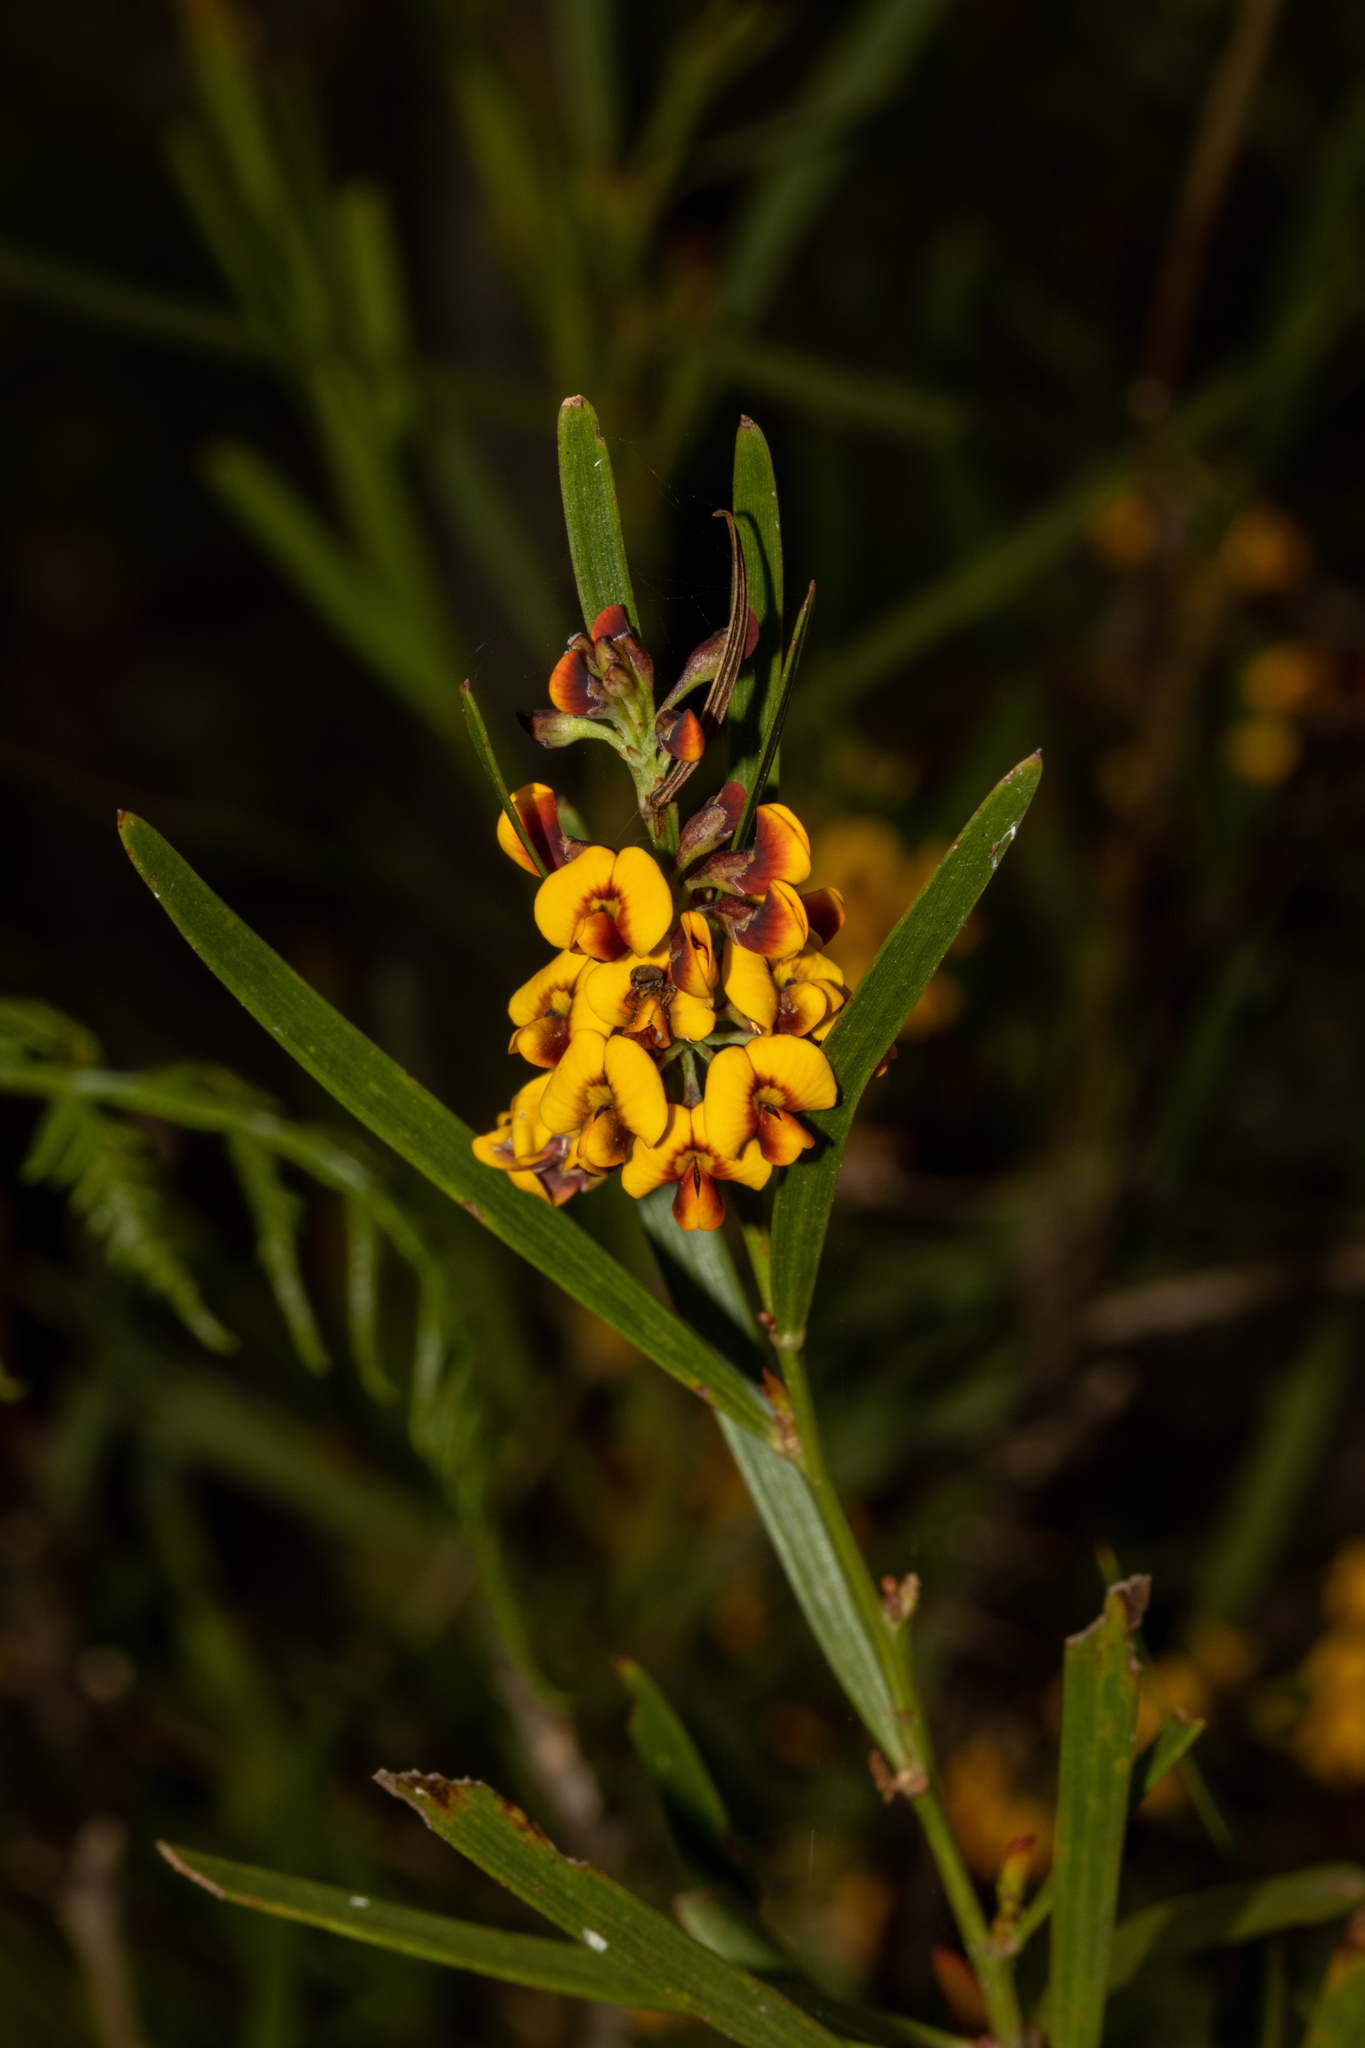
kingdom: Plantae
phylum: Tracheophyta
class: Magnoliopsida
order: Fabales
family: Fabaceae
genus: Daviesia
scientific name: Daviesia leptophylla
